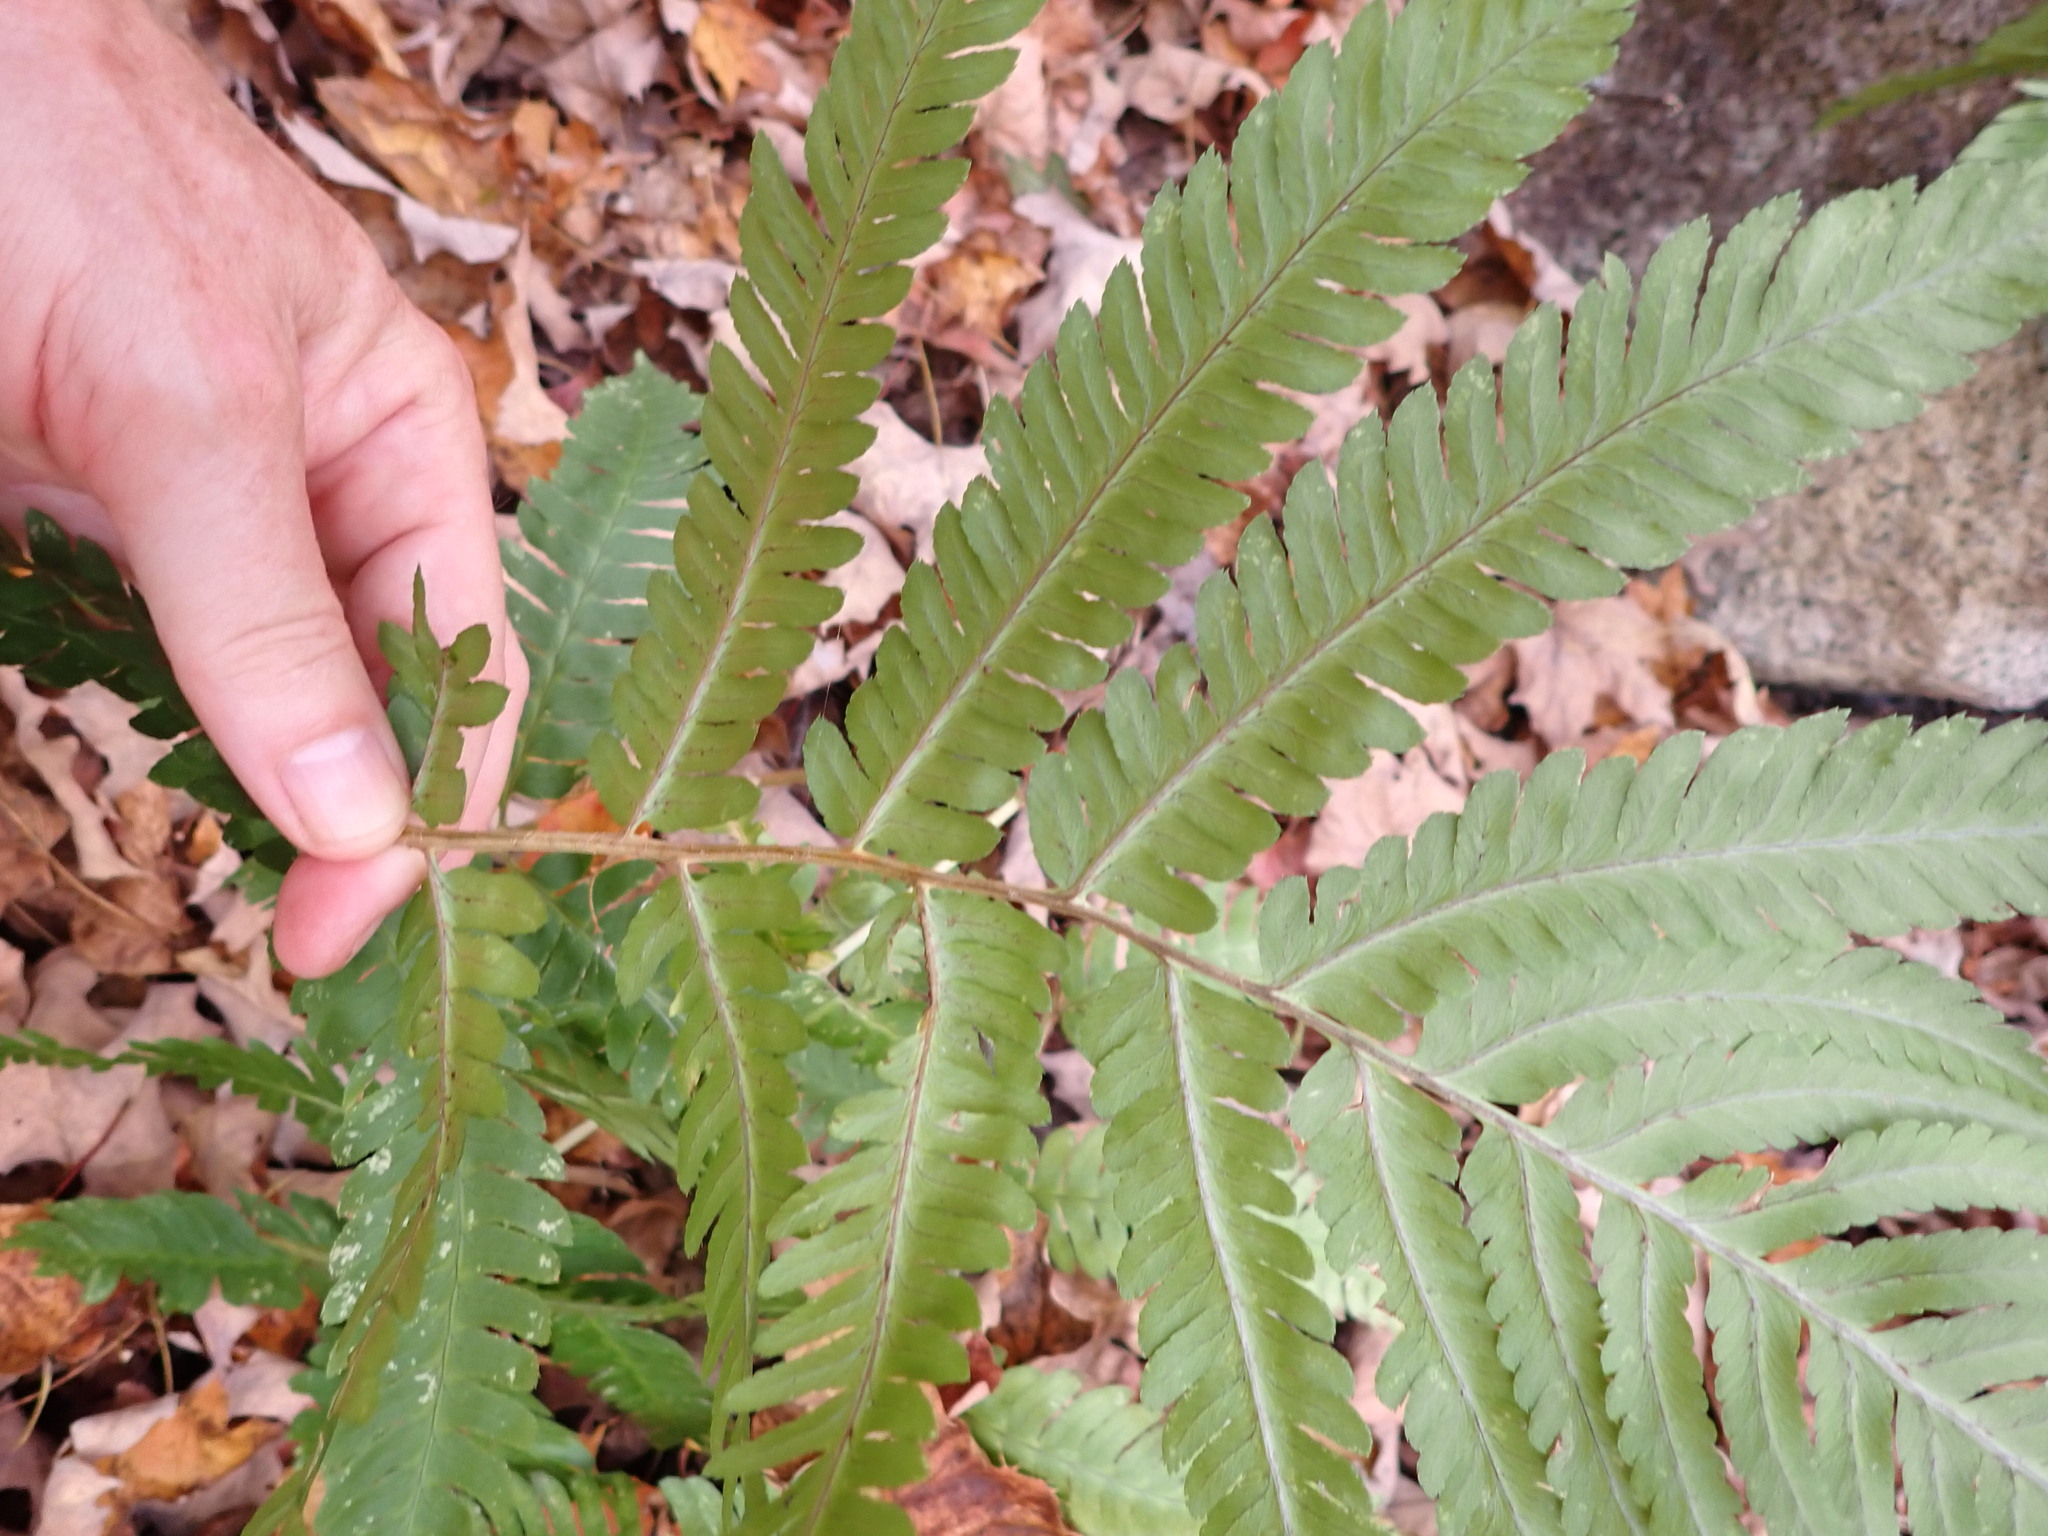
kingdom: Plantae
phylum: Tracheophyta
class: Polypodiopsida
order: Polypodiales
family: Dryopteridaceae
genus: Dryopteris
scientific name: Dryopteris goldieana
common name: Goldie's fern
